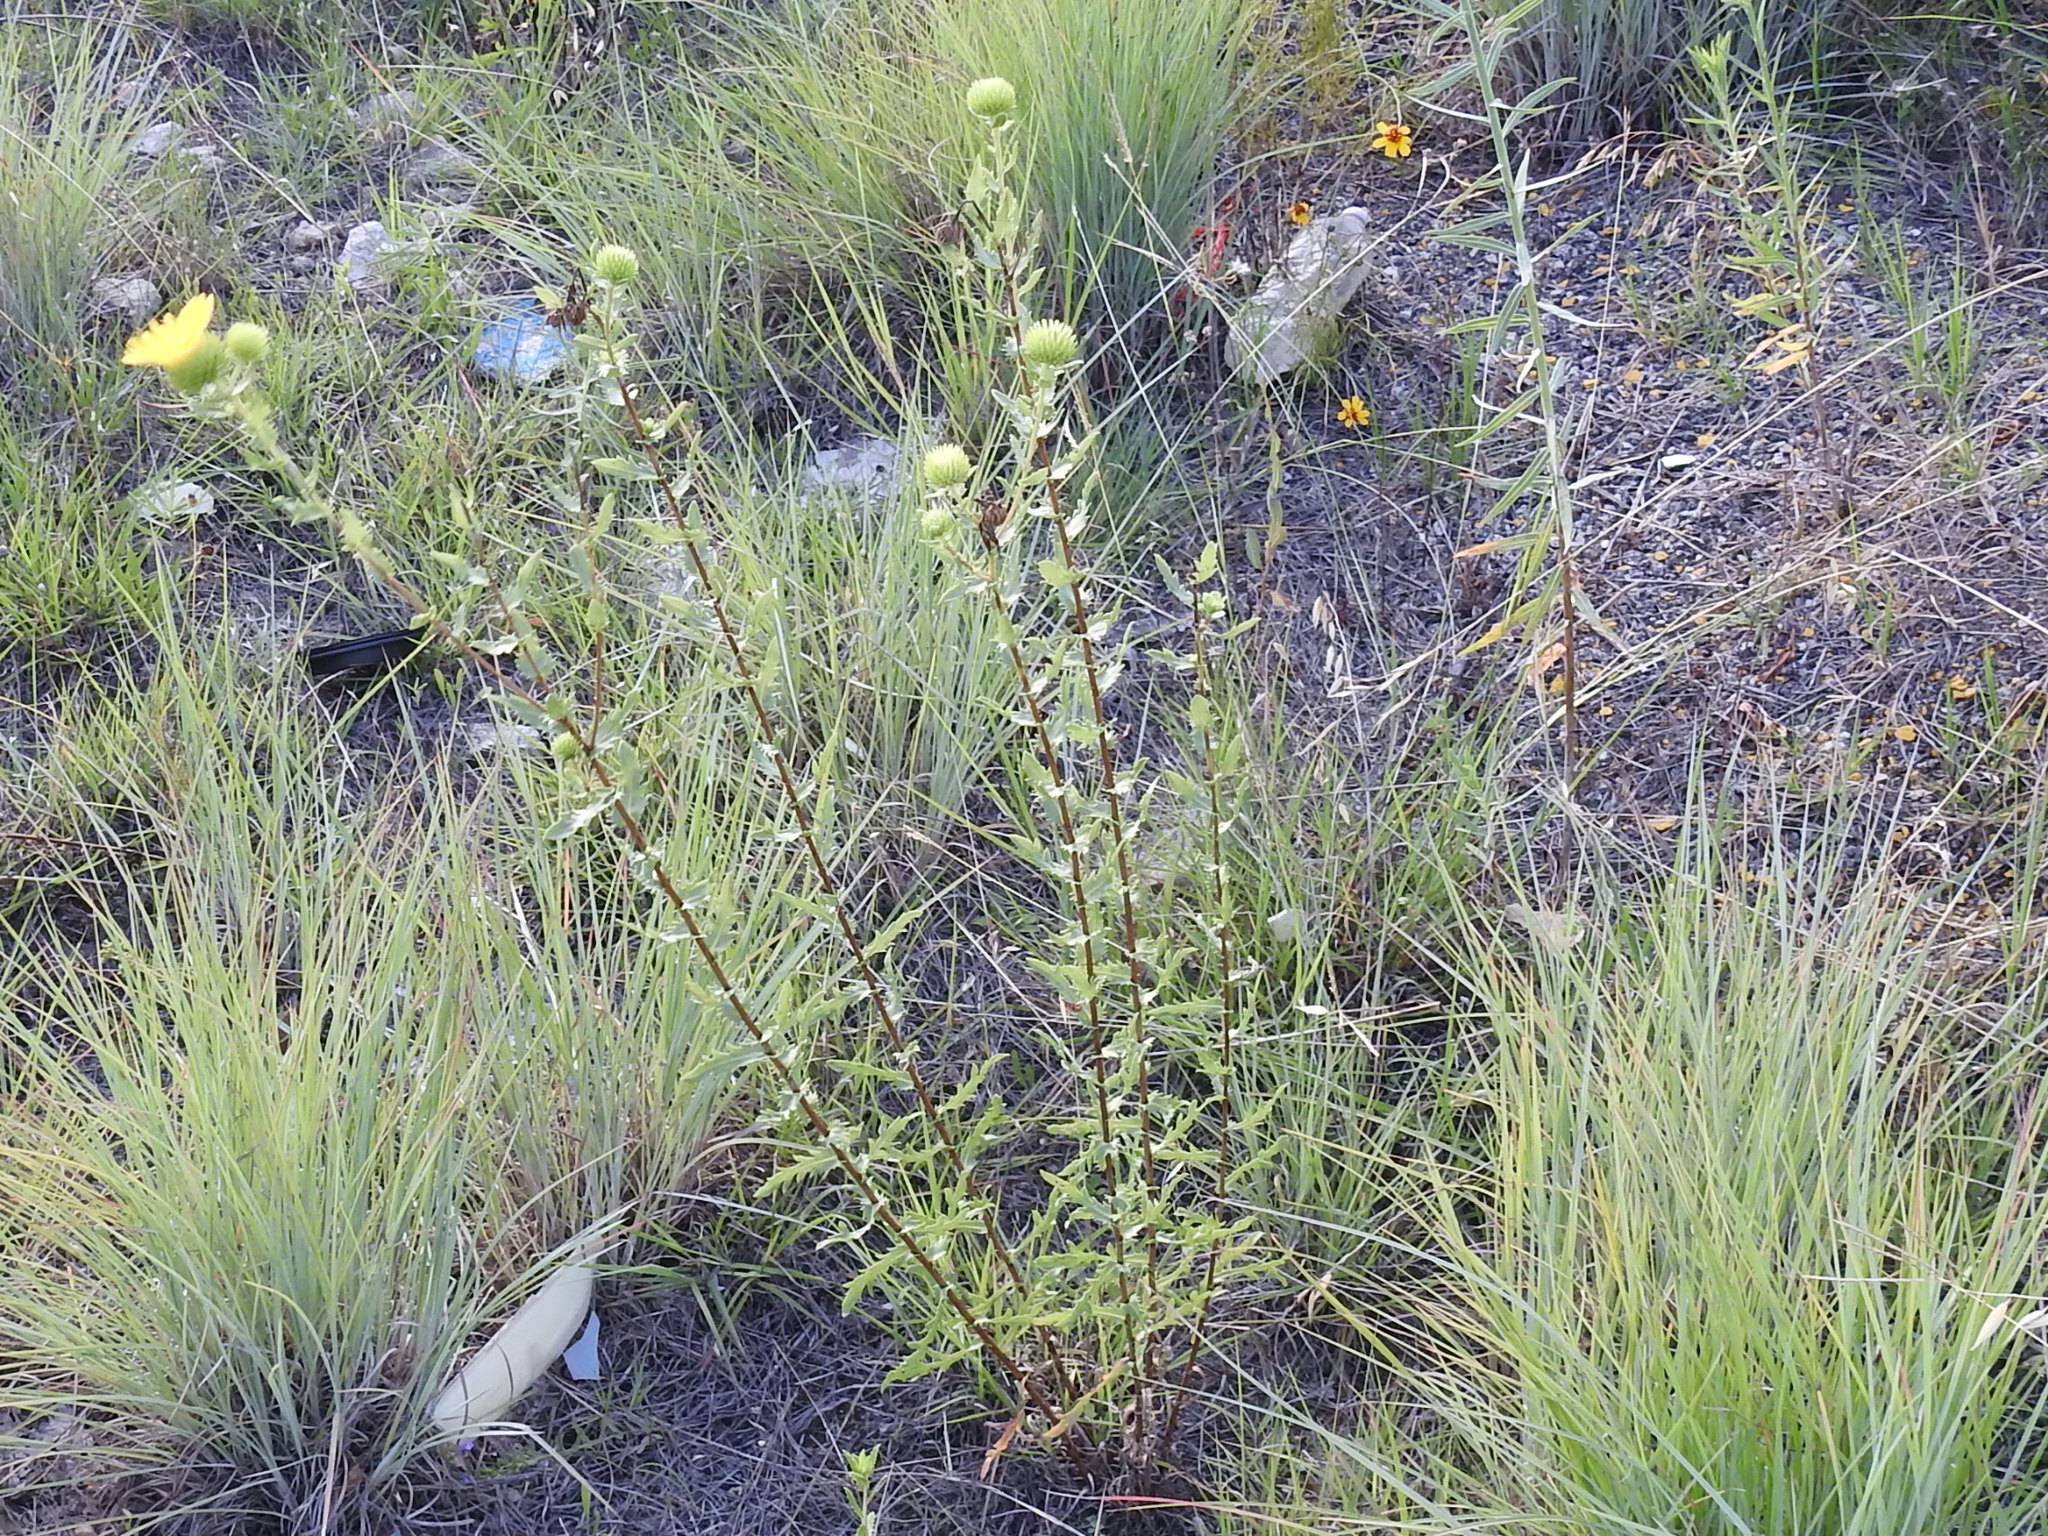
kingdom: Plantae
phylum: Tracheophyta
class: Magnoliopsida
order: Asterales
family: Asteraceae
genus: Grindelia
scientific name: Grindelia lanceolata
